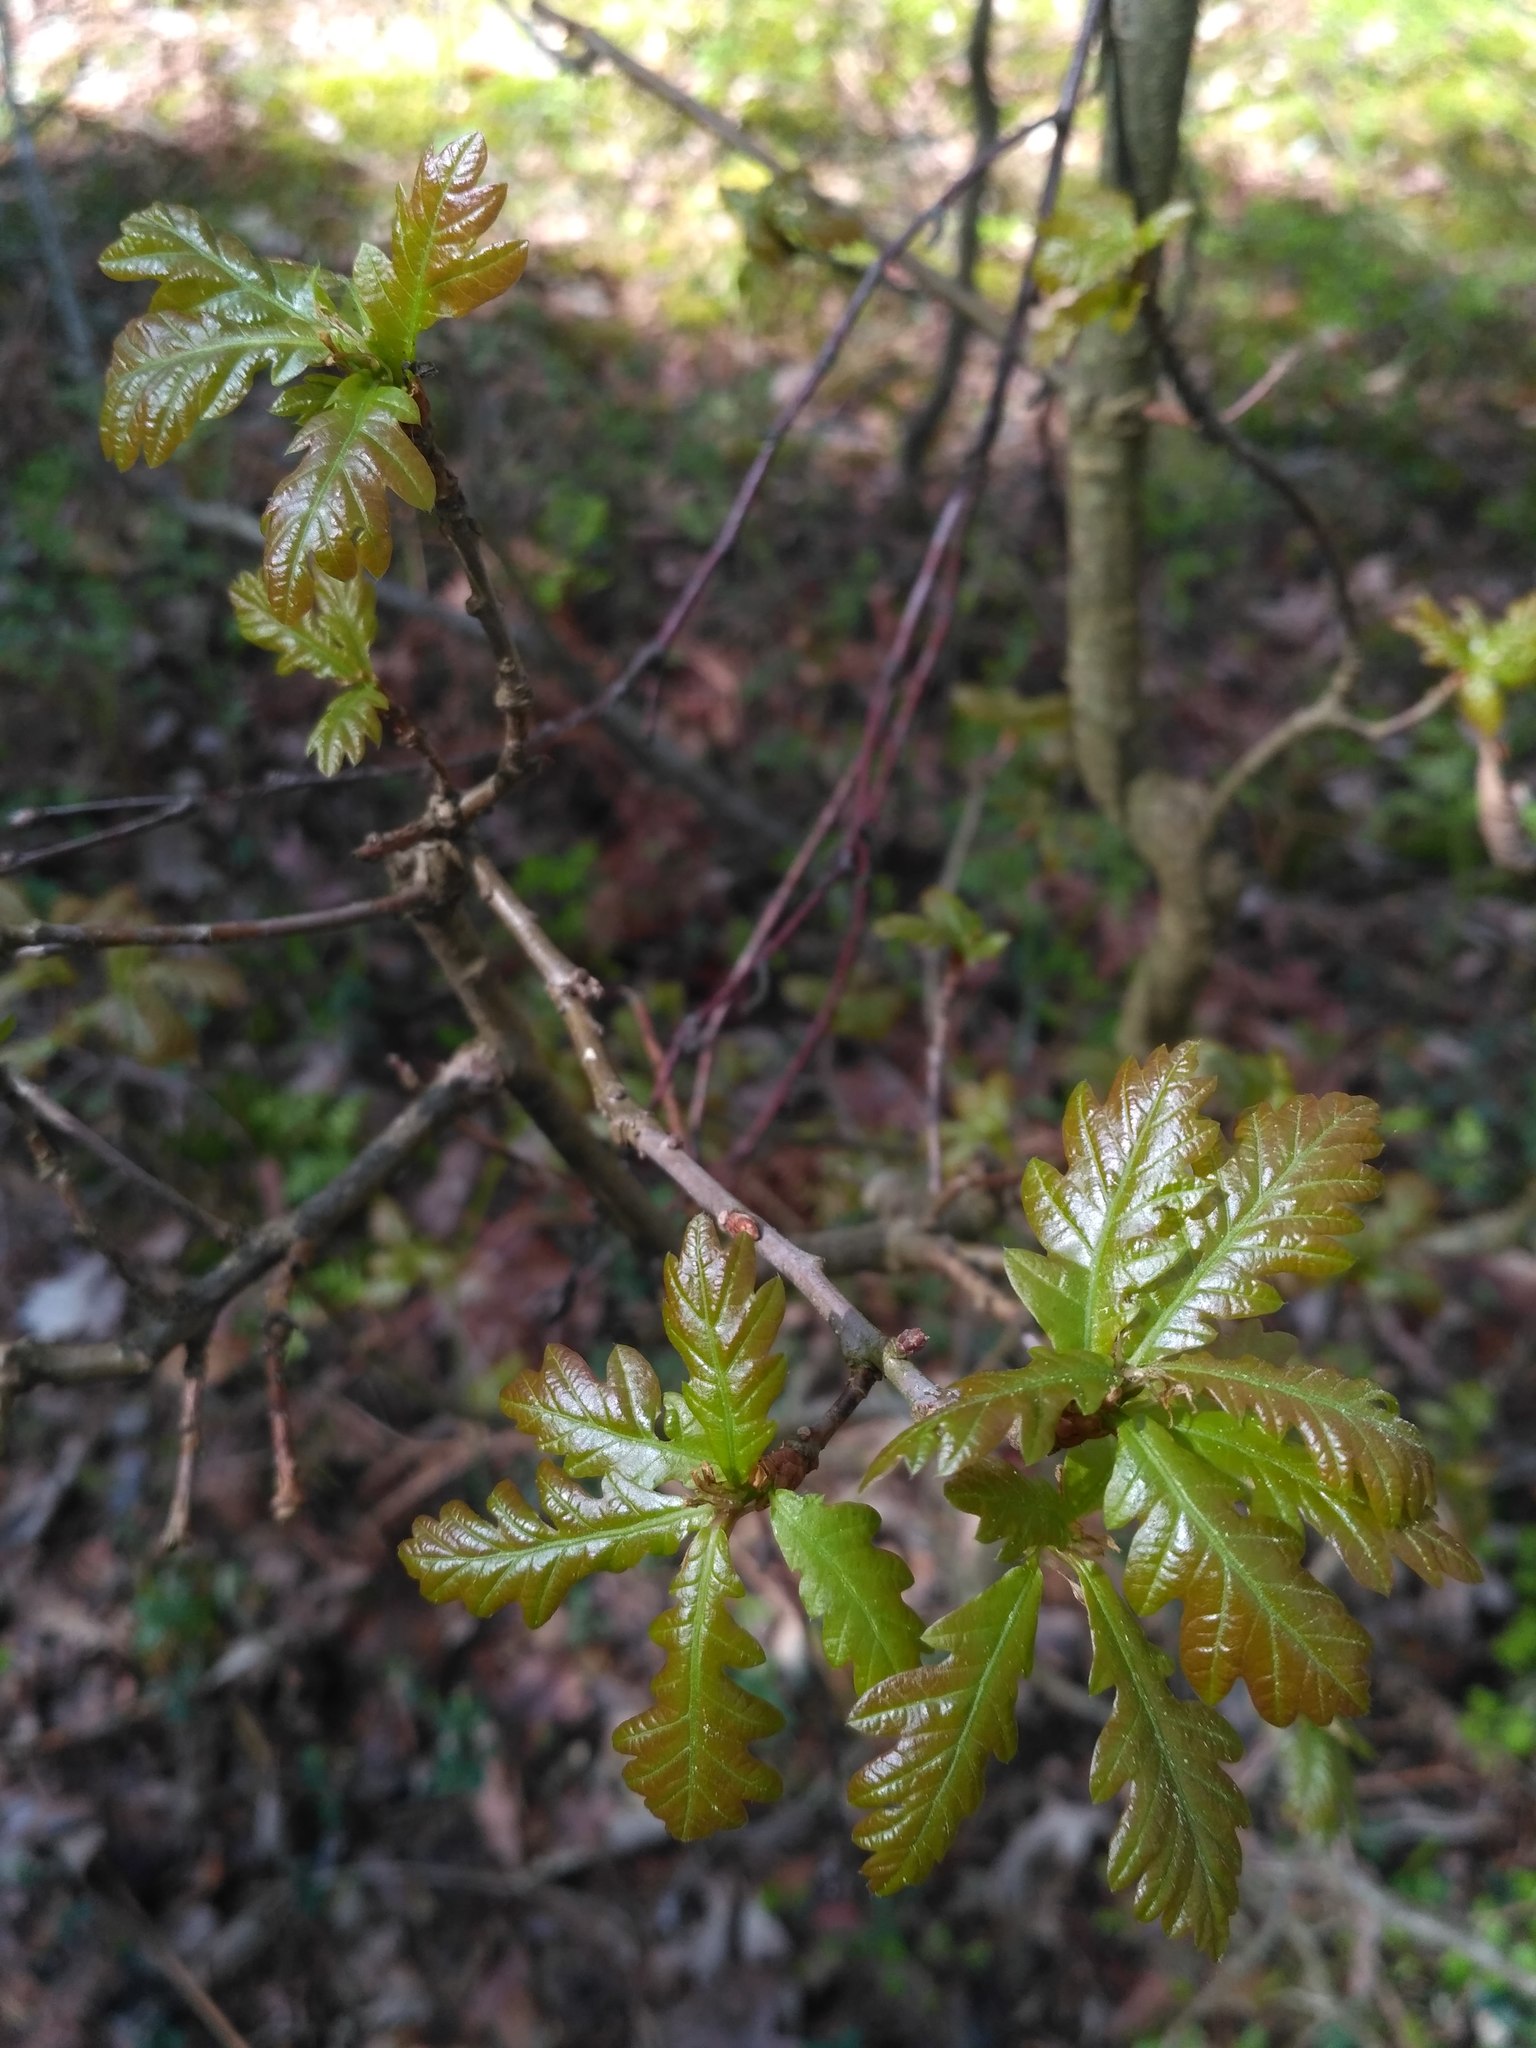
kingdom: Plantae
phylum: Tracheophyta
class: Magnoliopsida
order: Fagales
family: Fagaceae
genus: Quercus
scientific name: Quercus robur
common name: Pedunculate oak
